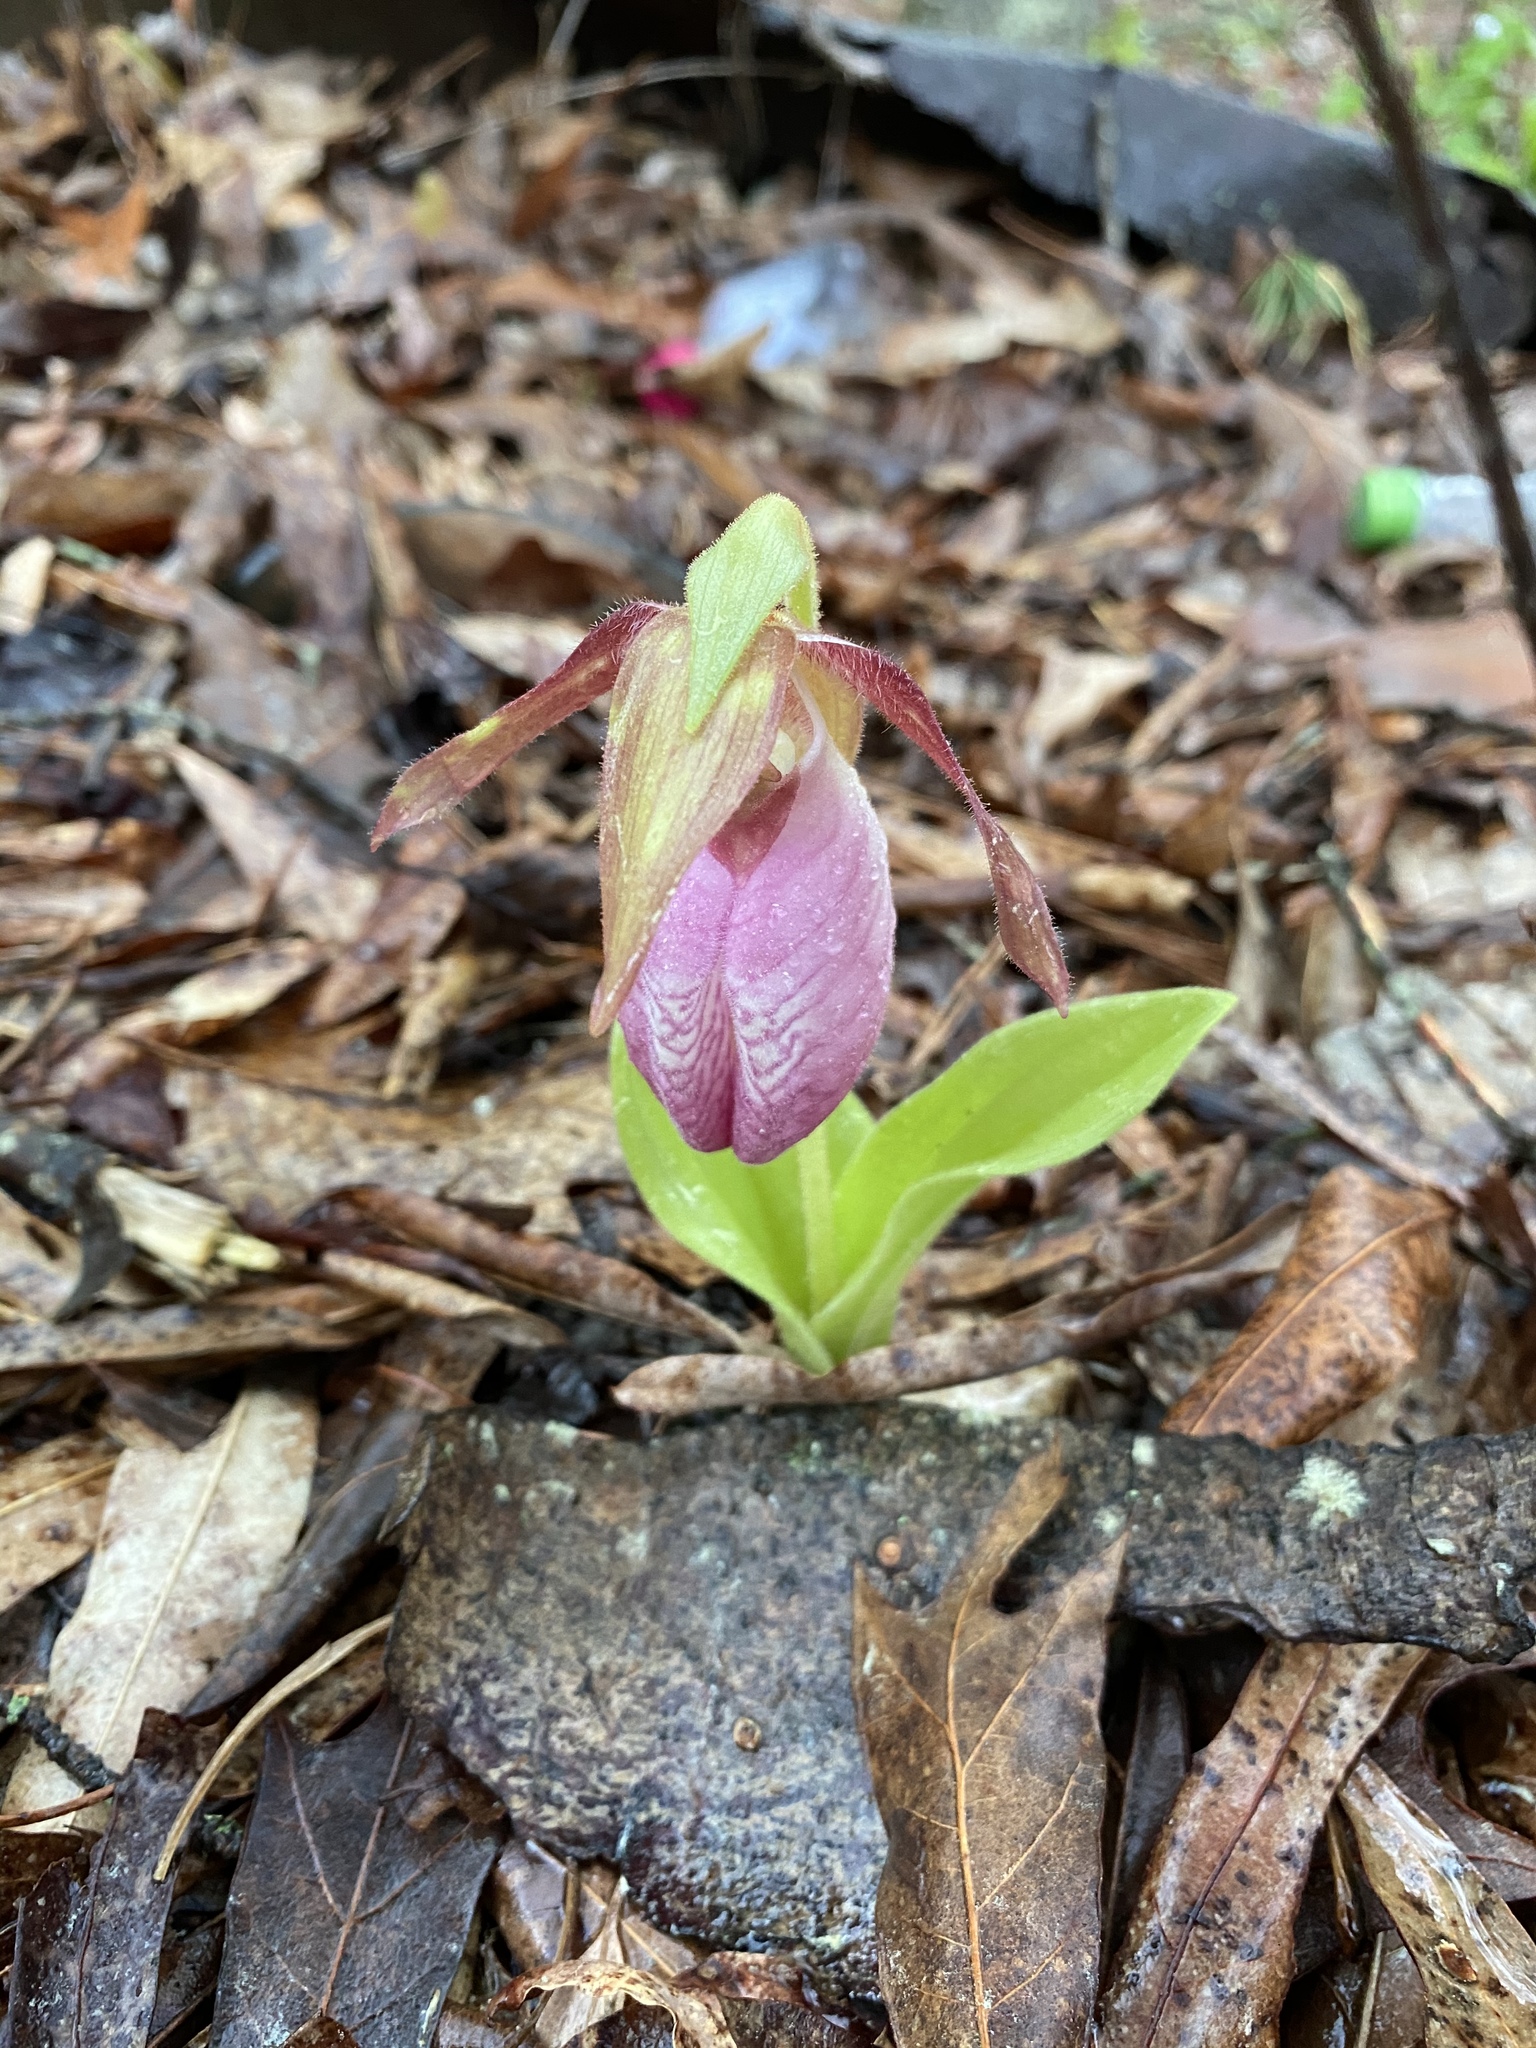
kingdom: Plantae
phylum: Tracheophyta
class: Liliopsida
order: Asparagales
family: Orchidaceae
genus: Cypripedium
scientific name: Cypripedium acaule
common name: Pink lady's-slipper
